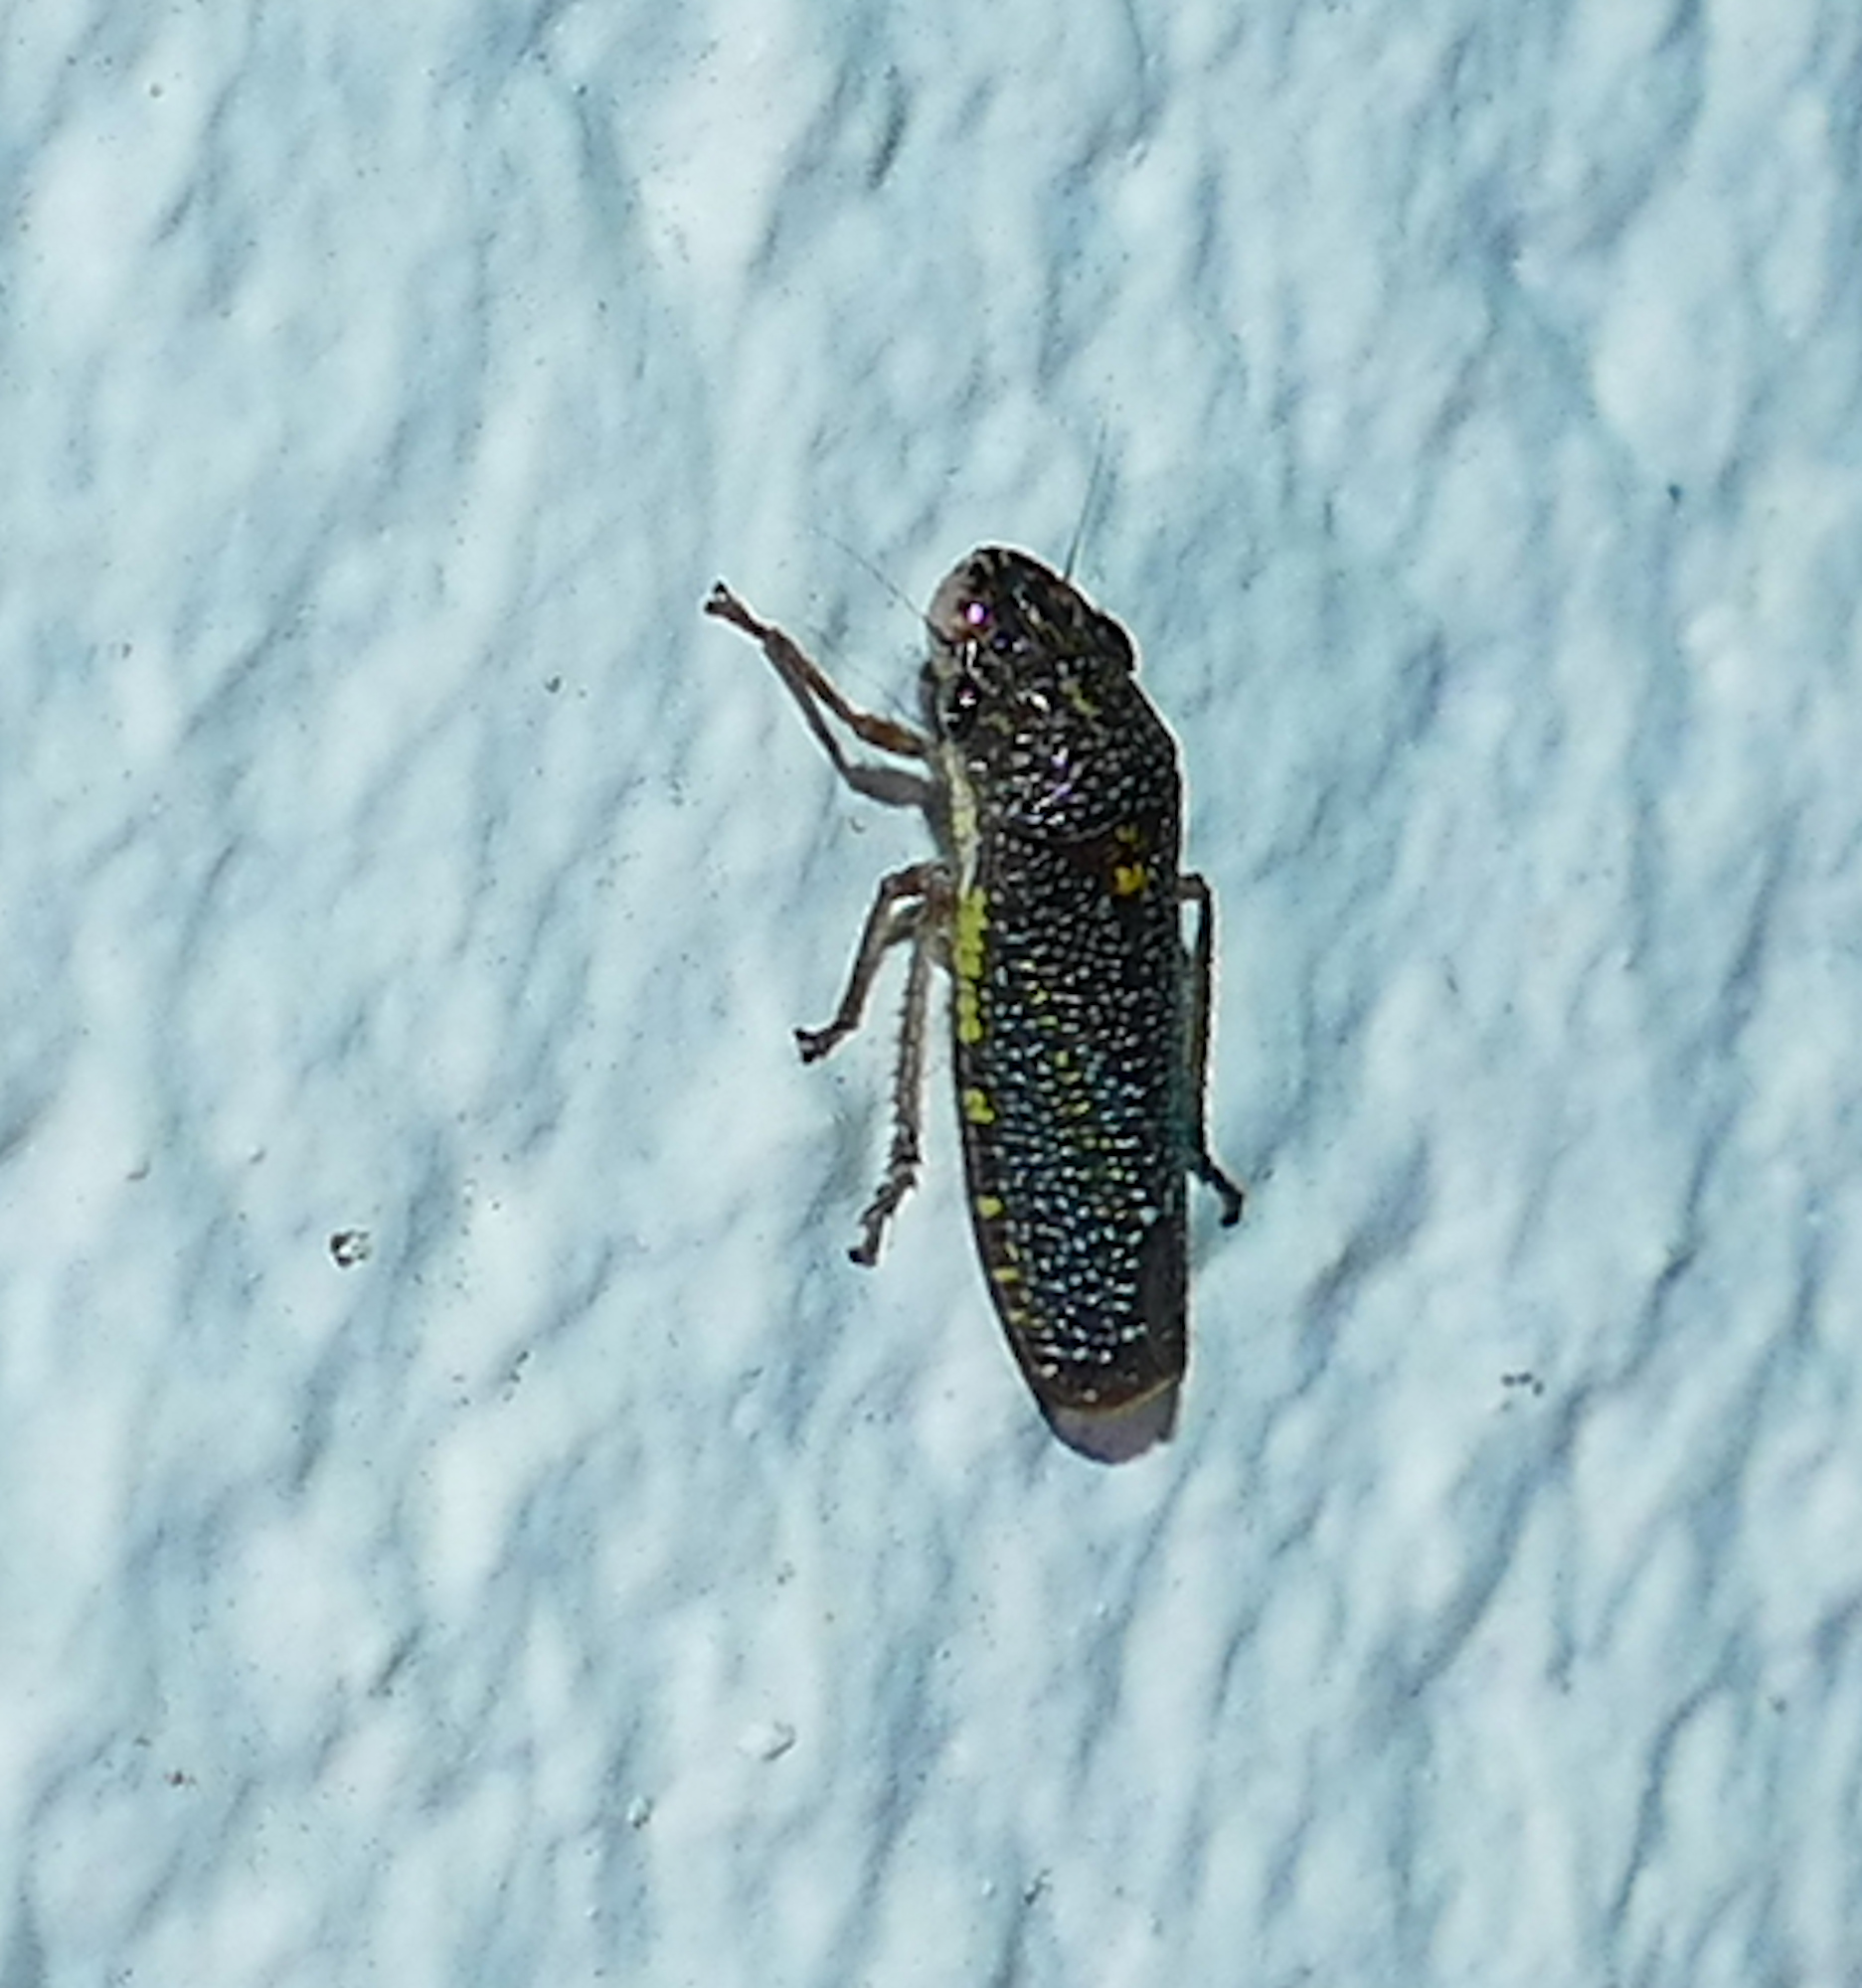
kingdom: Animalia
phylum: Arthropoda
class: Insecta
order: Hemiptera
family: Cicadellidae
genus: Paraulacizes
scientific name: Paraulacizes irrorata
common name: Speckled sharpshooter
